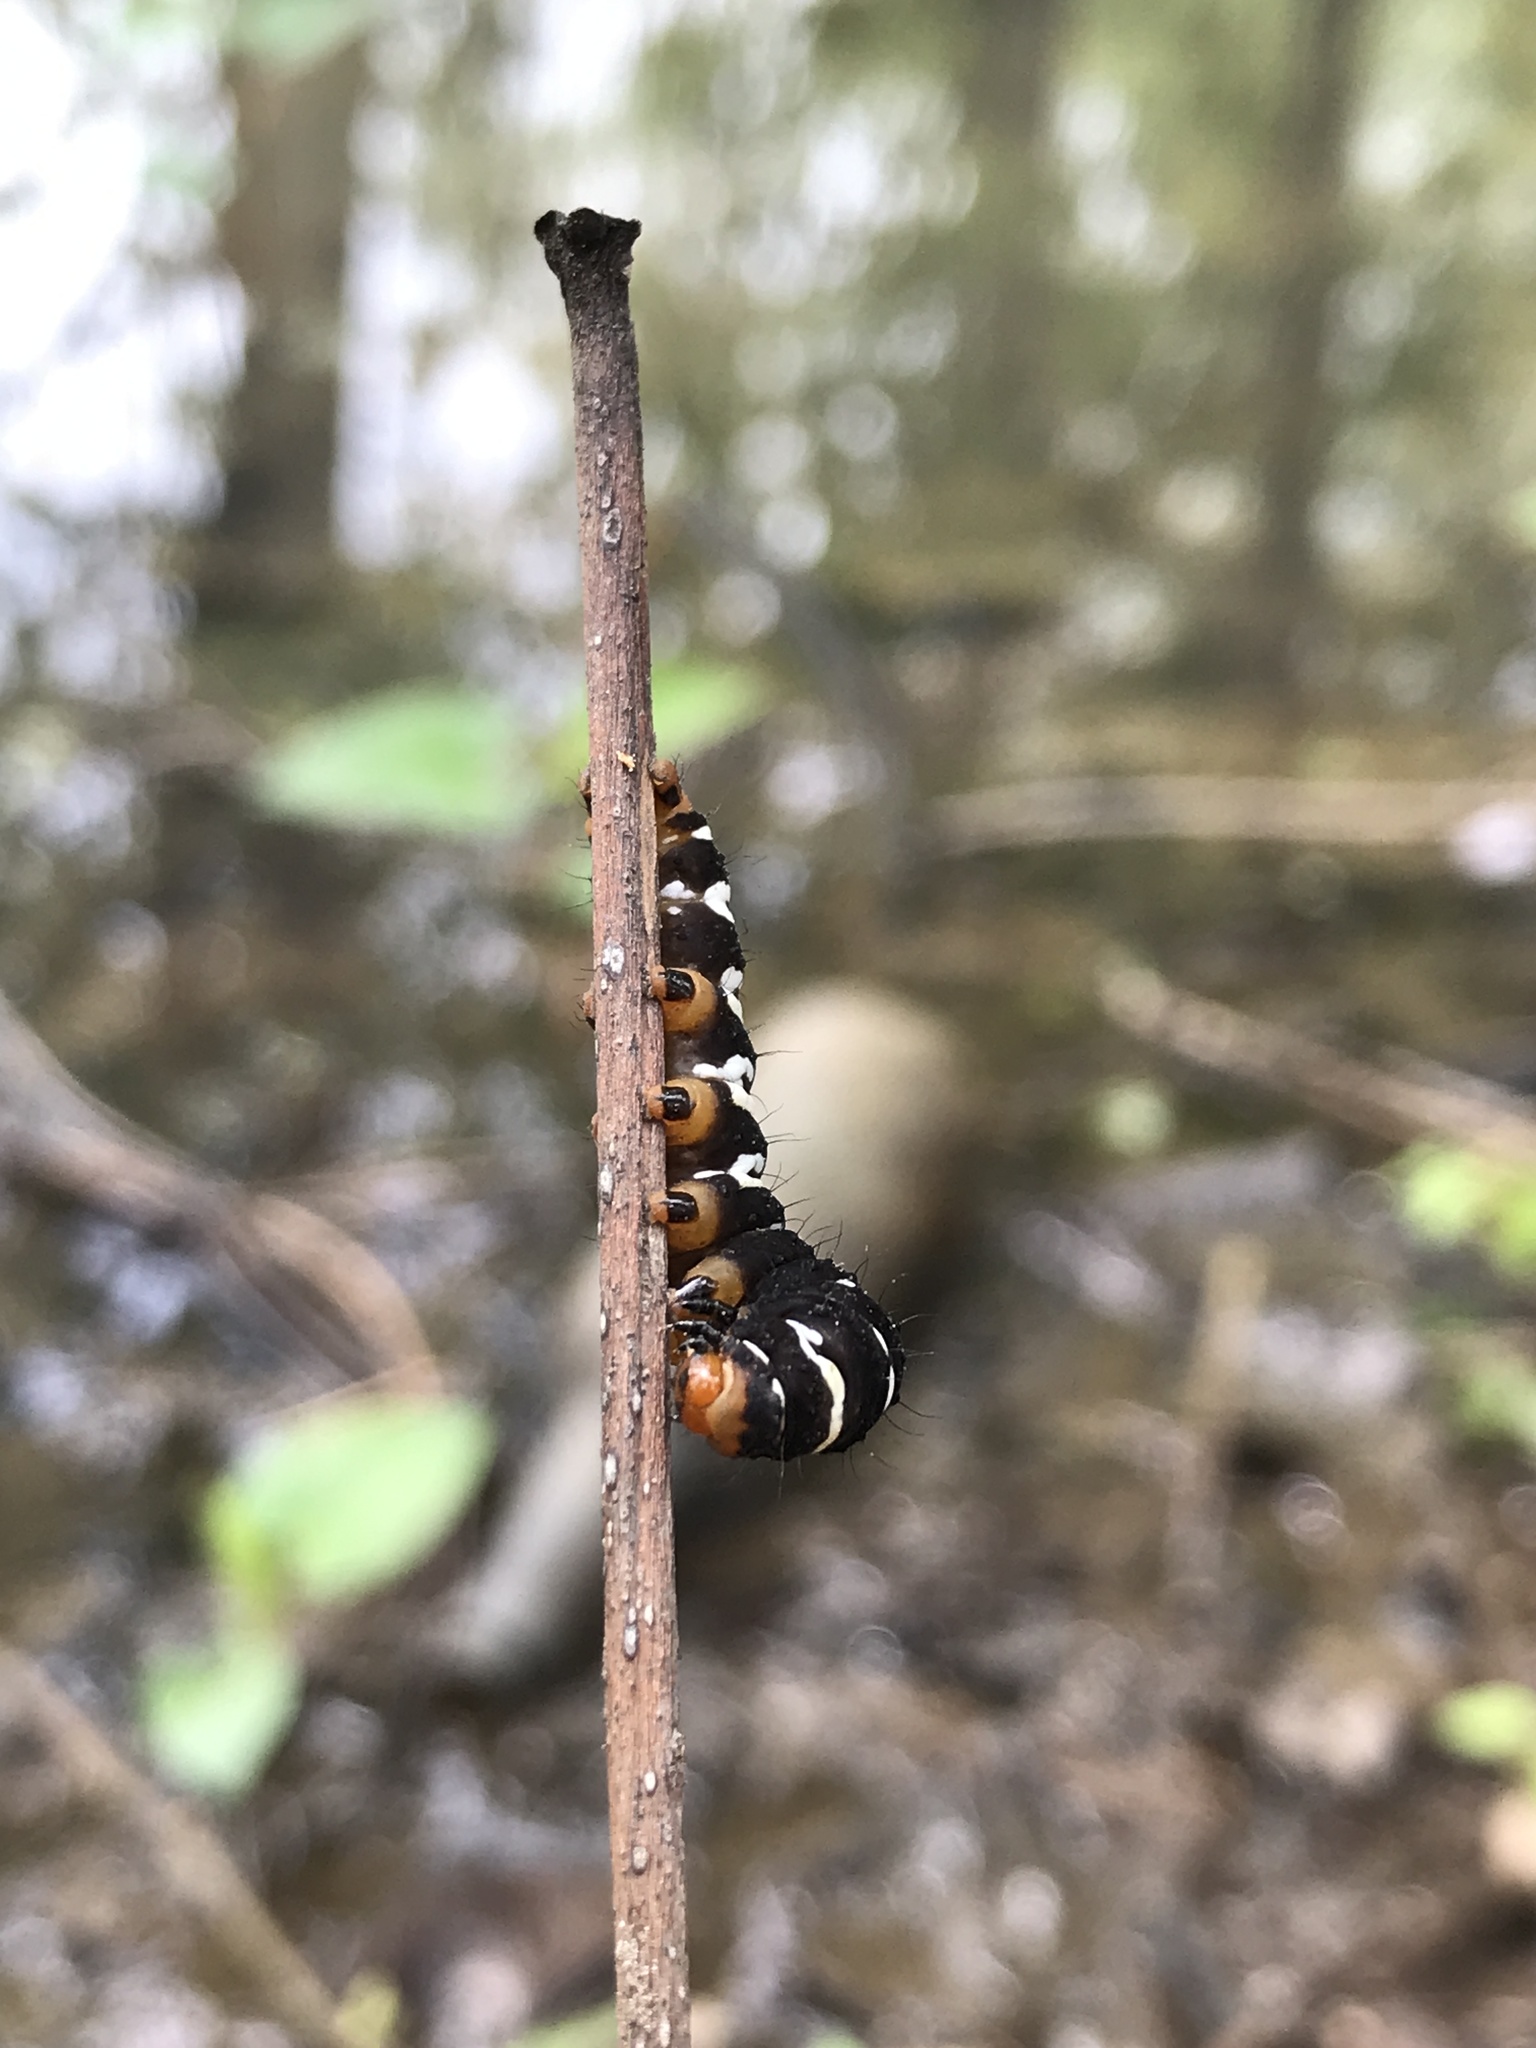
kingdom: Animalia
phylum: Arthropoda
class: Insecta
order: Lepidoptera
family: Noctuidae
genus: Xanthopastis
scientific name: Xanthopastis regnatrix
